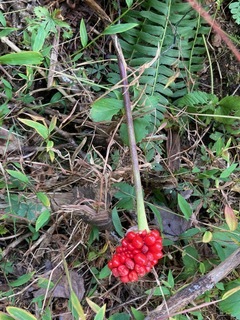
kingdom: Plantae
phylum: Tracheophyta
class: Liliopsida
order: Alismatales
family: Araceae
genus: Arisaema
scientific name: Arisaema triphyllum
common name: Jack-in-the-pulpit
